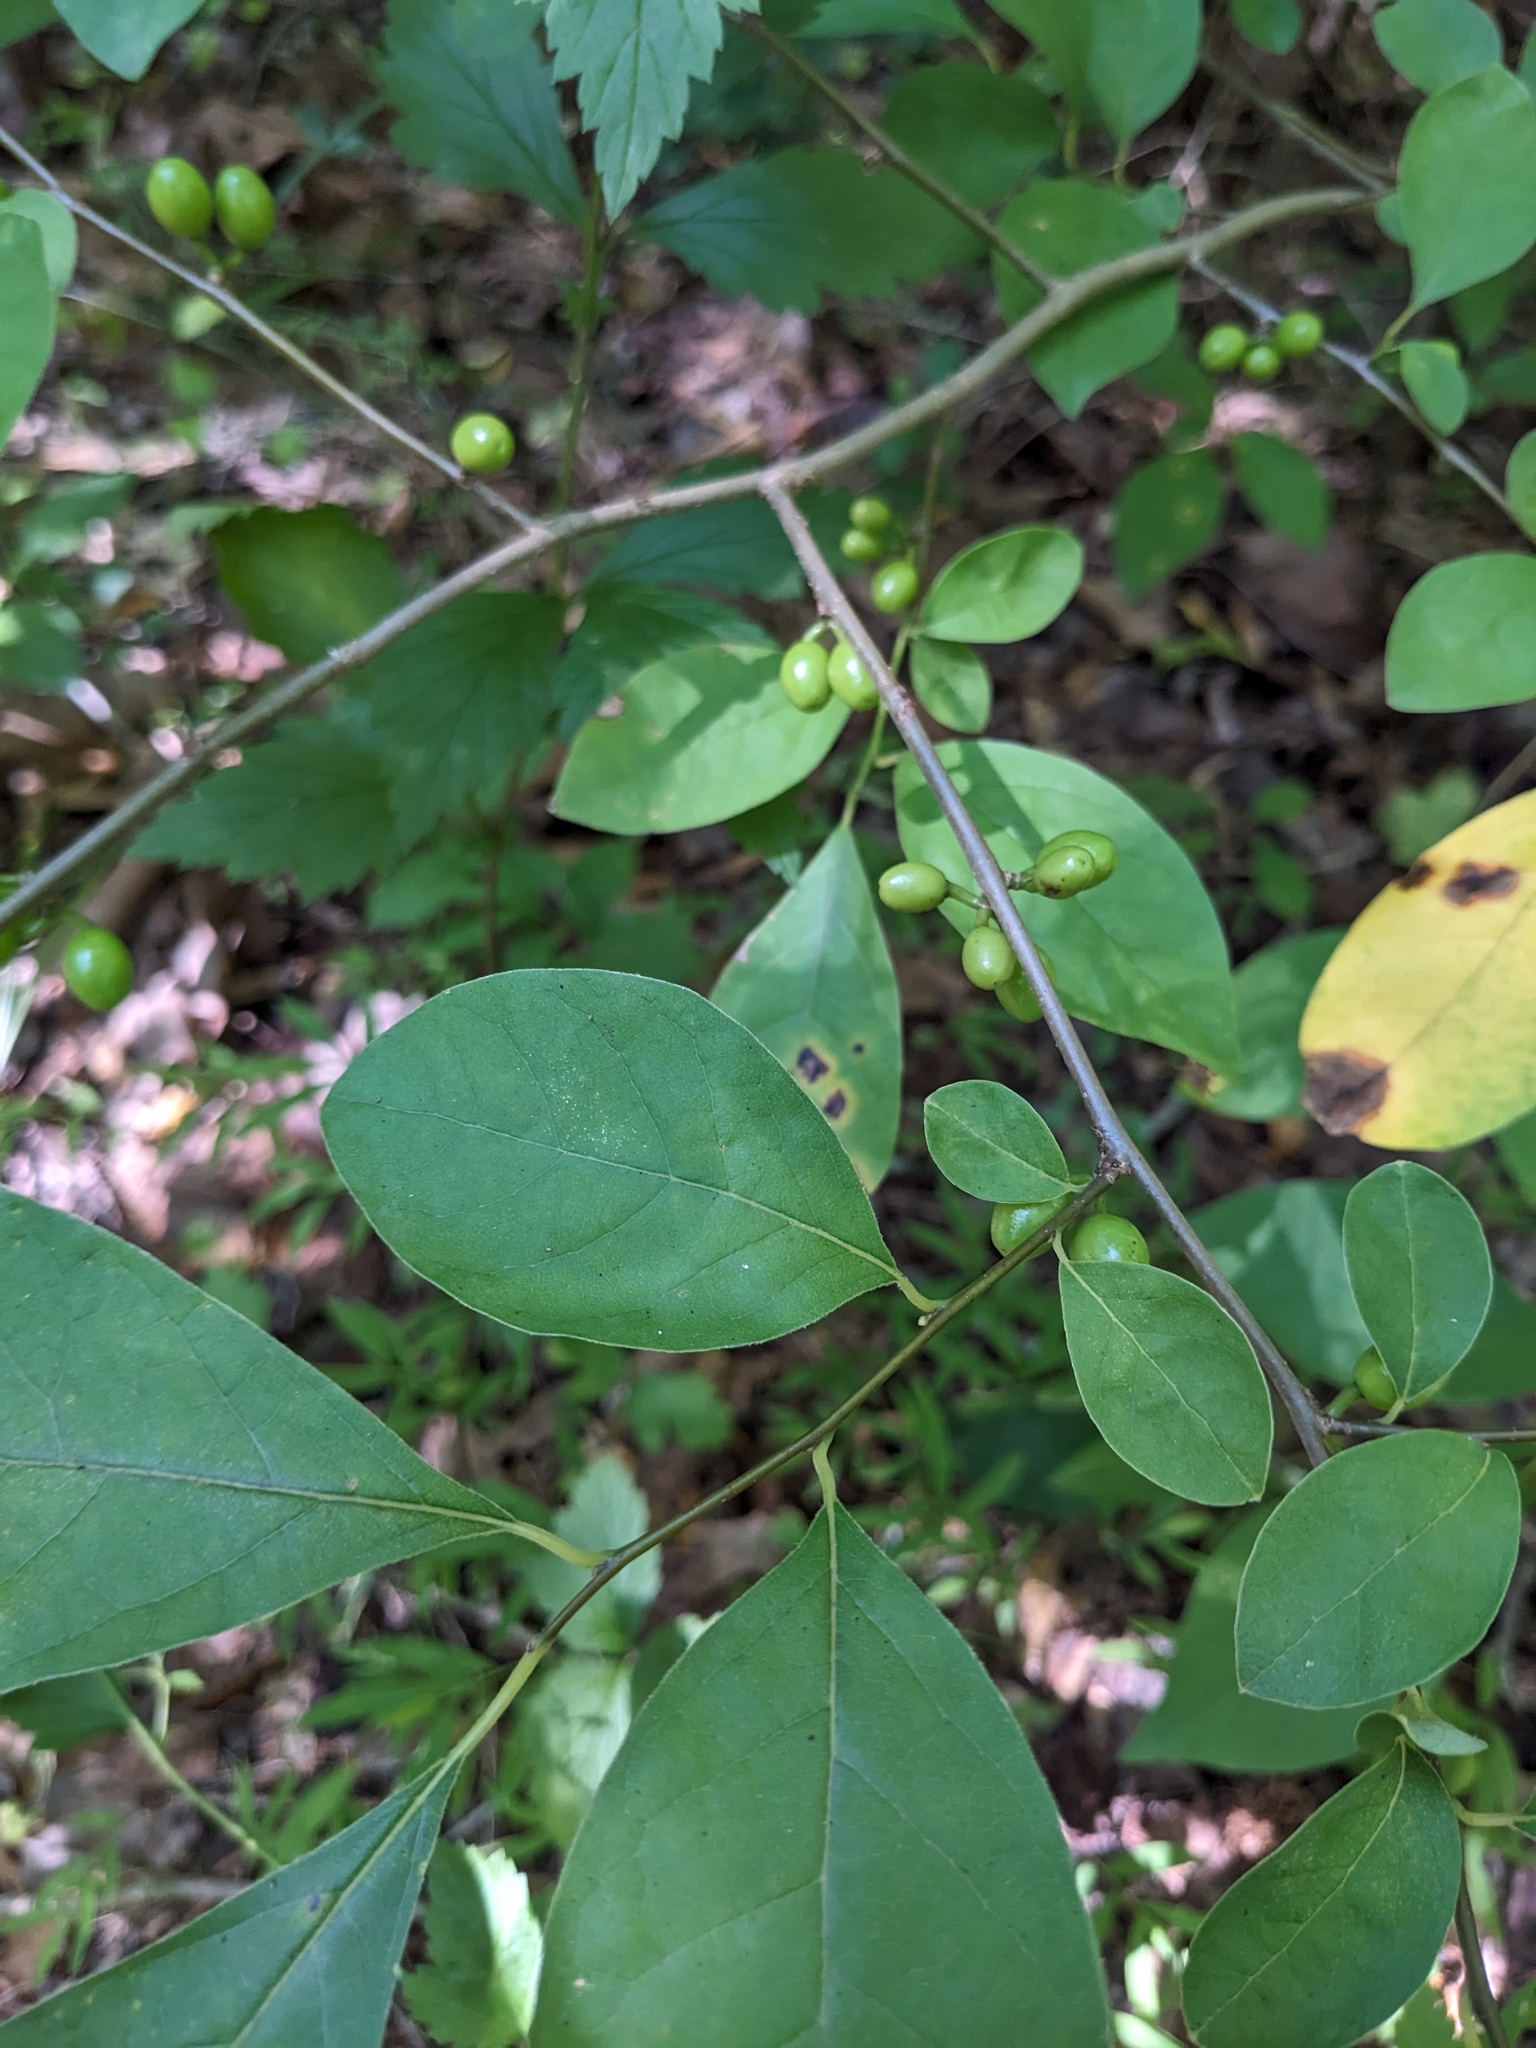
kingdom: Plantae
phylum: Tracheophyta
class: Magnoliopsida
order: Laurales
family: Lauraceae
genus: Lindera
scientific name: Lindera benzoin
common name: Spicebush
